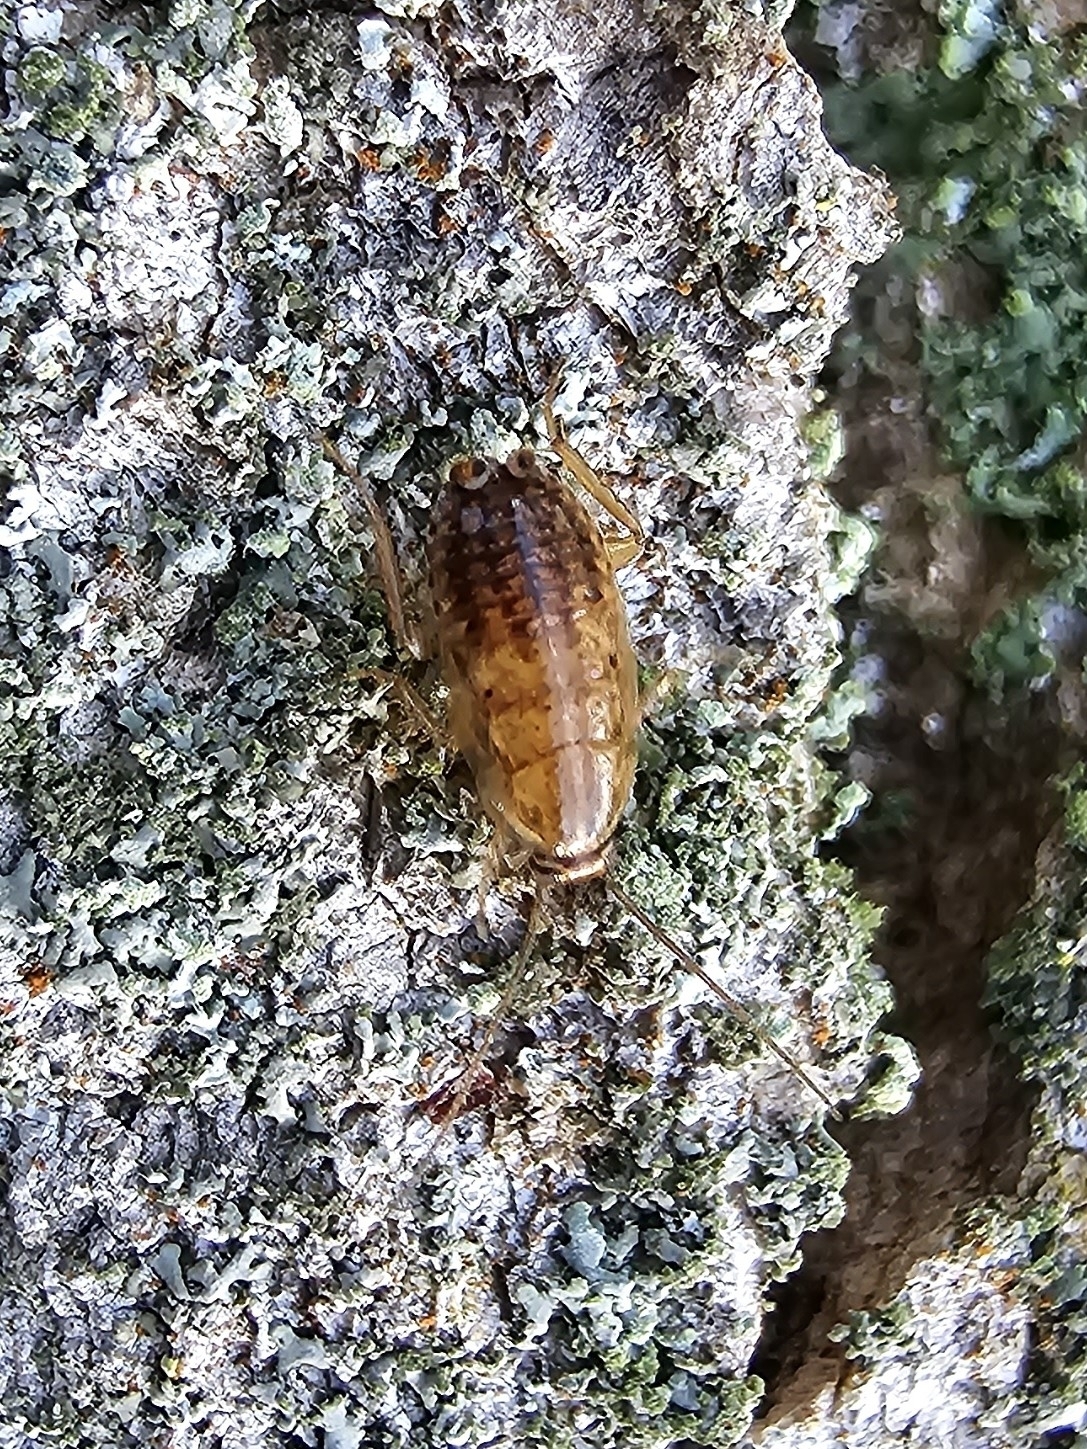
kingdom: Animalia
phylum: Arthropoda
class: Insecta
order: Blattodea
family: Ectobiidae
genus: Ectobius
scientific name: Ectobius lapponicus
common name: Dusky cockroach
